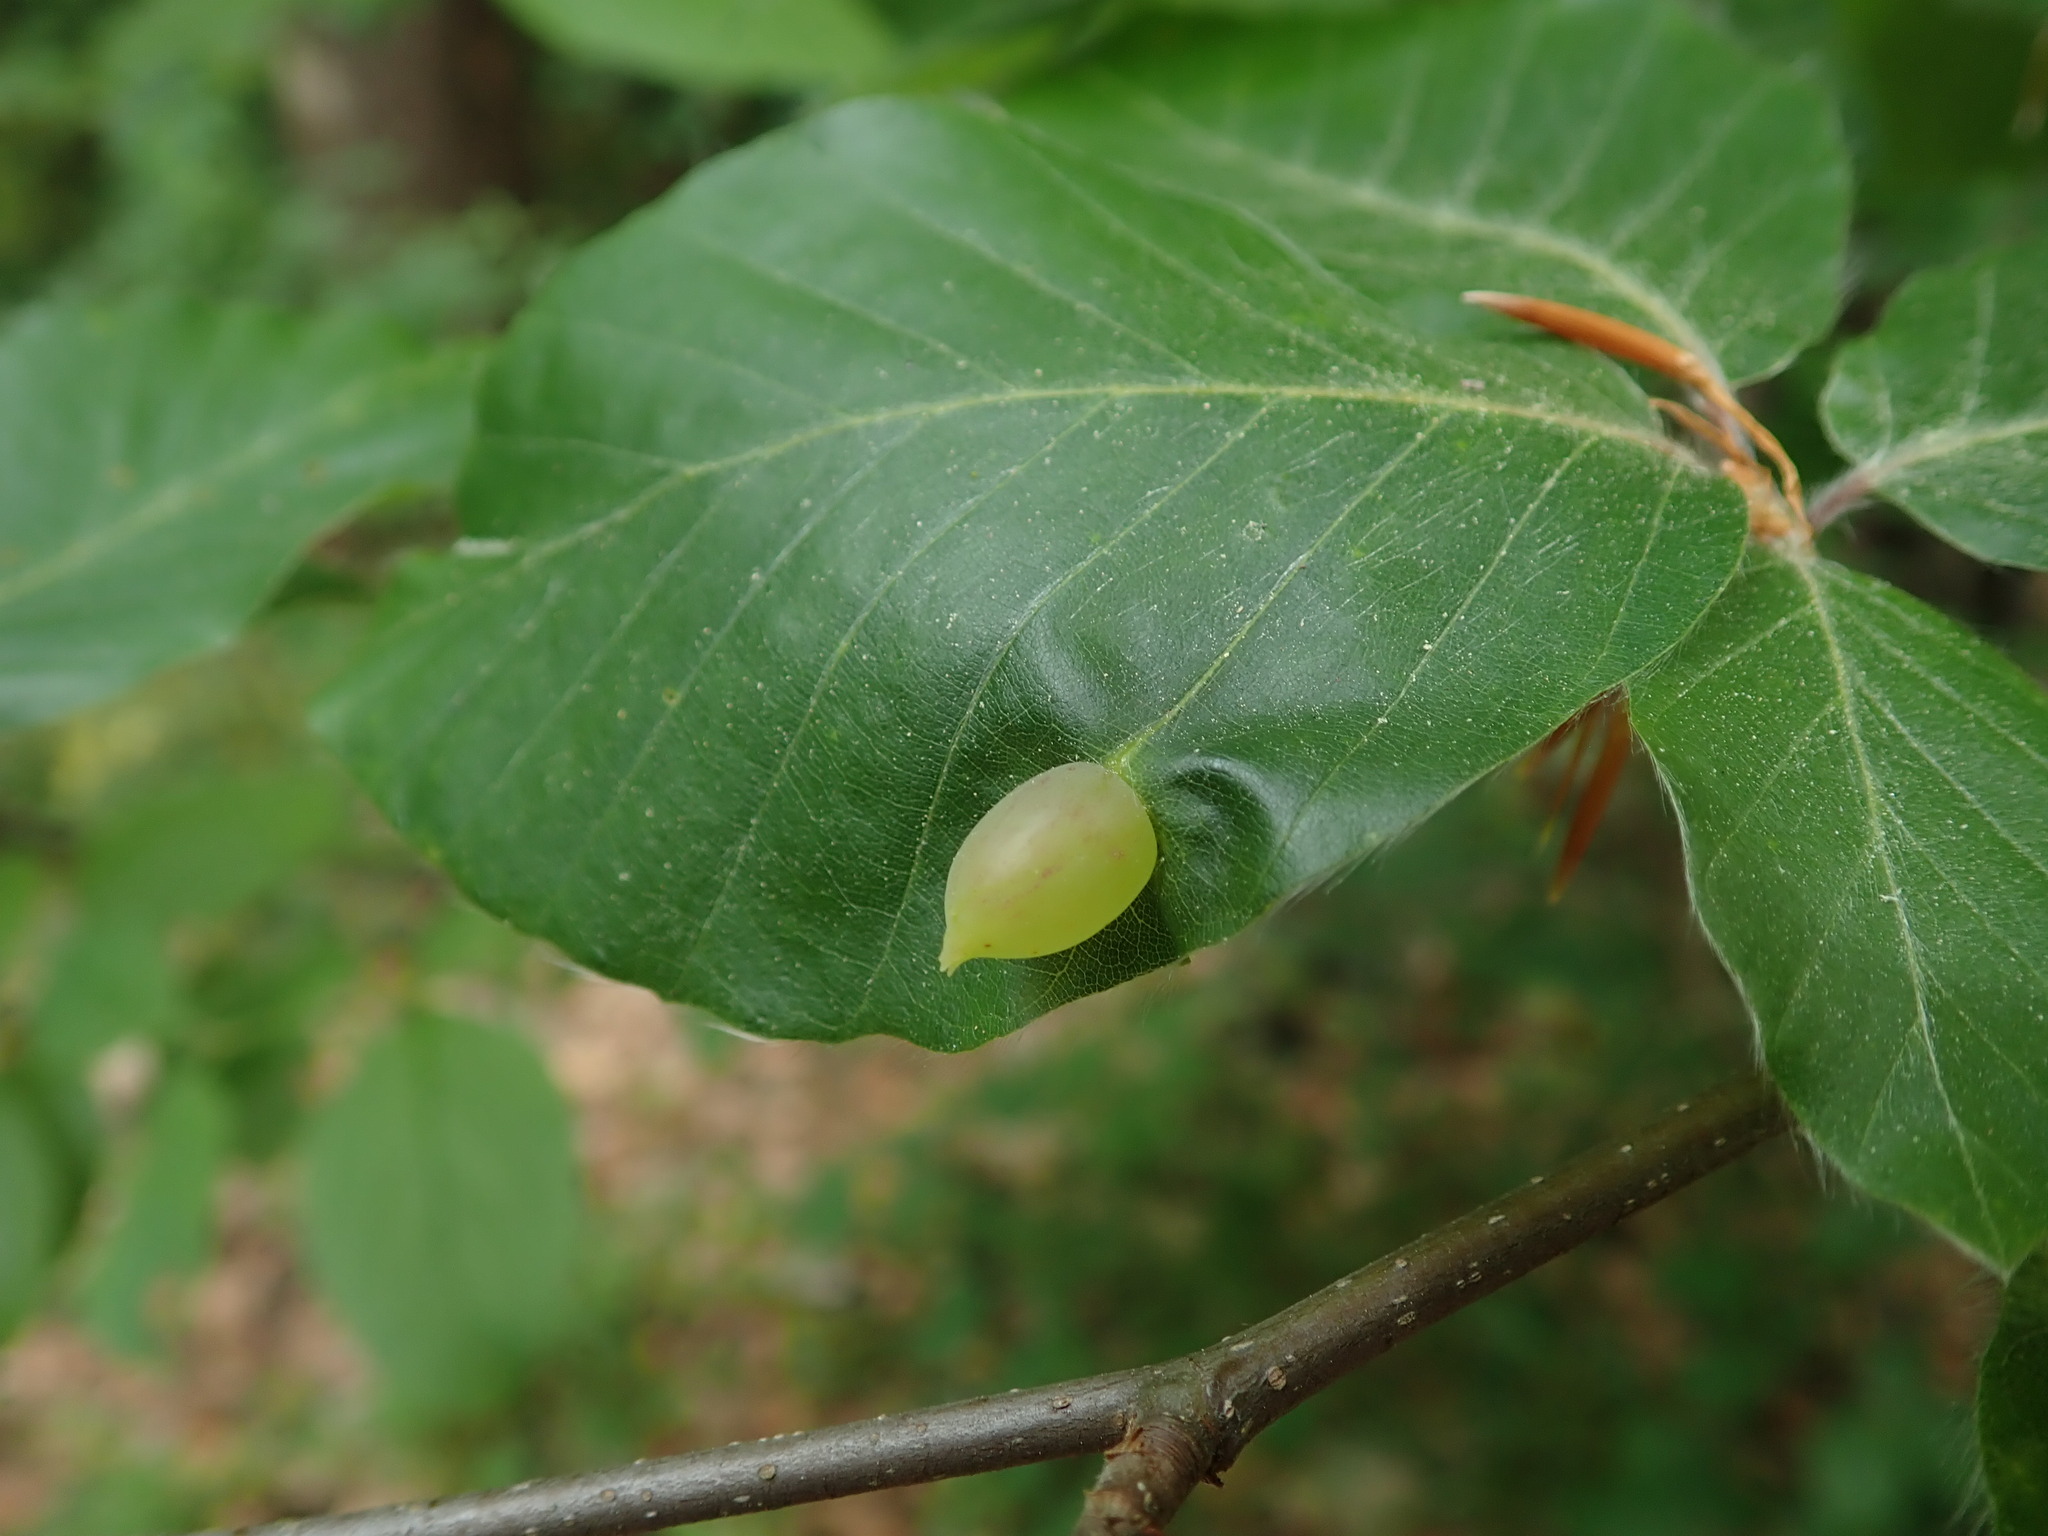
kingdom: Animalia
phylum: Arthropoda
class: Insecta
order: Diptera
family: Cecidomyiidae
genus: Mikiola
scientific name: Mikiola fagi
